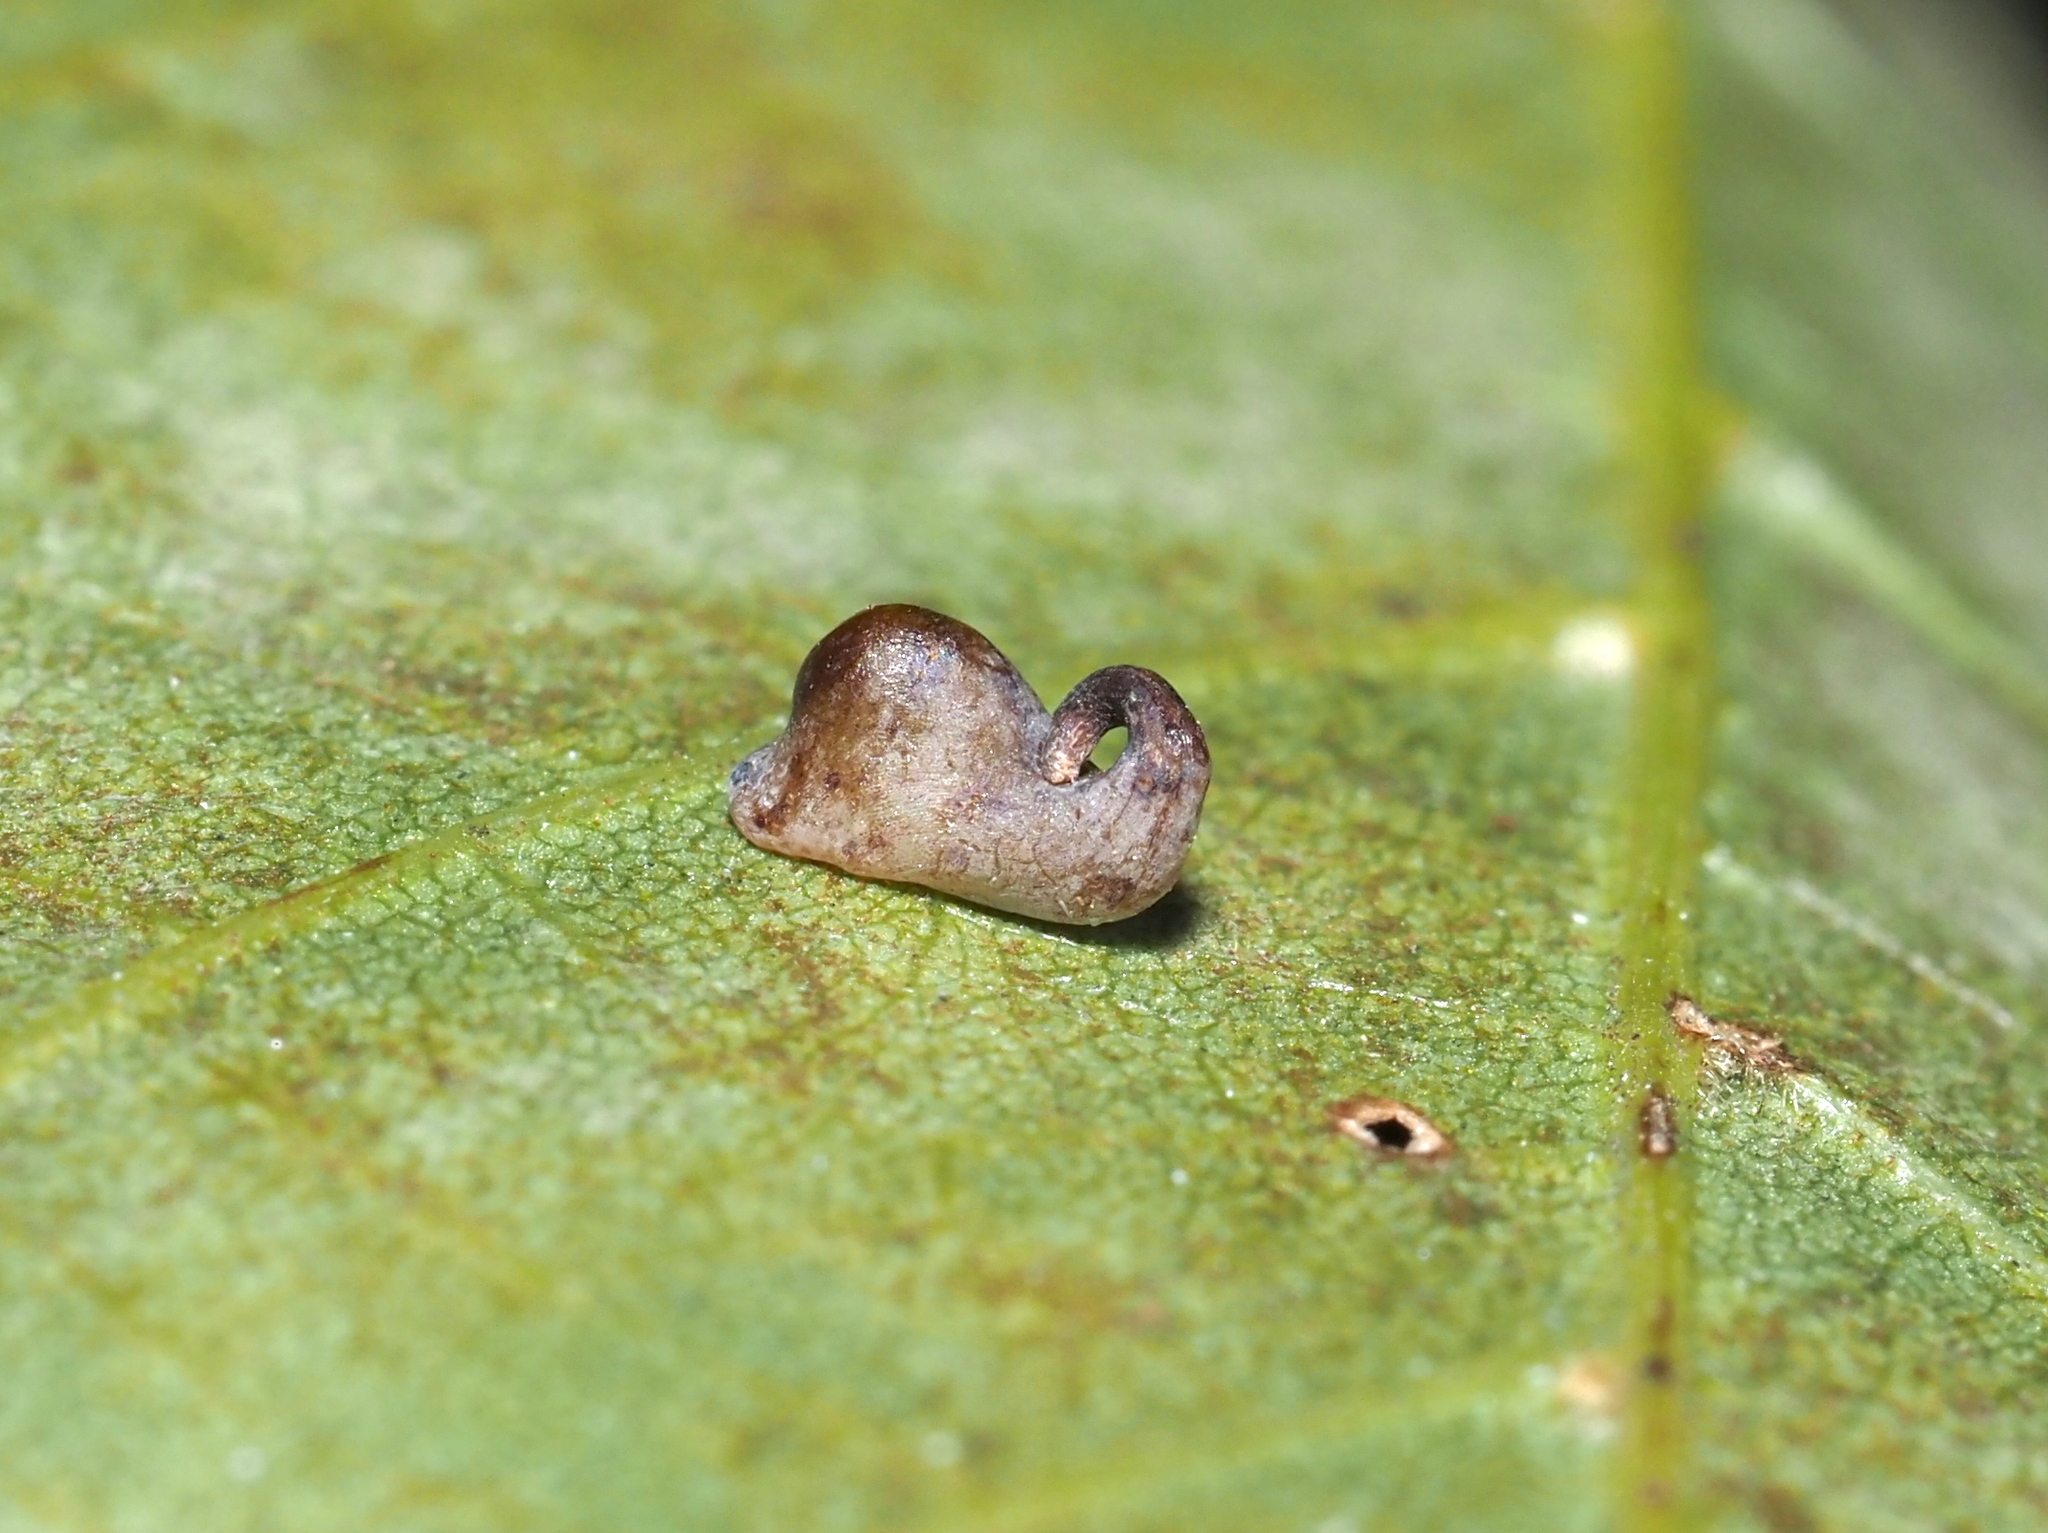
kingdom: Animalia
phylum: Arthropoda
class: Insecta
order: Diptera
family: Cecidomyiidae
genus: Caryomyia
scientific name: Caryomyia recurvata
